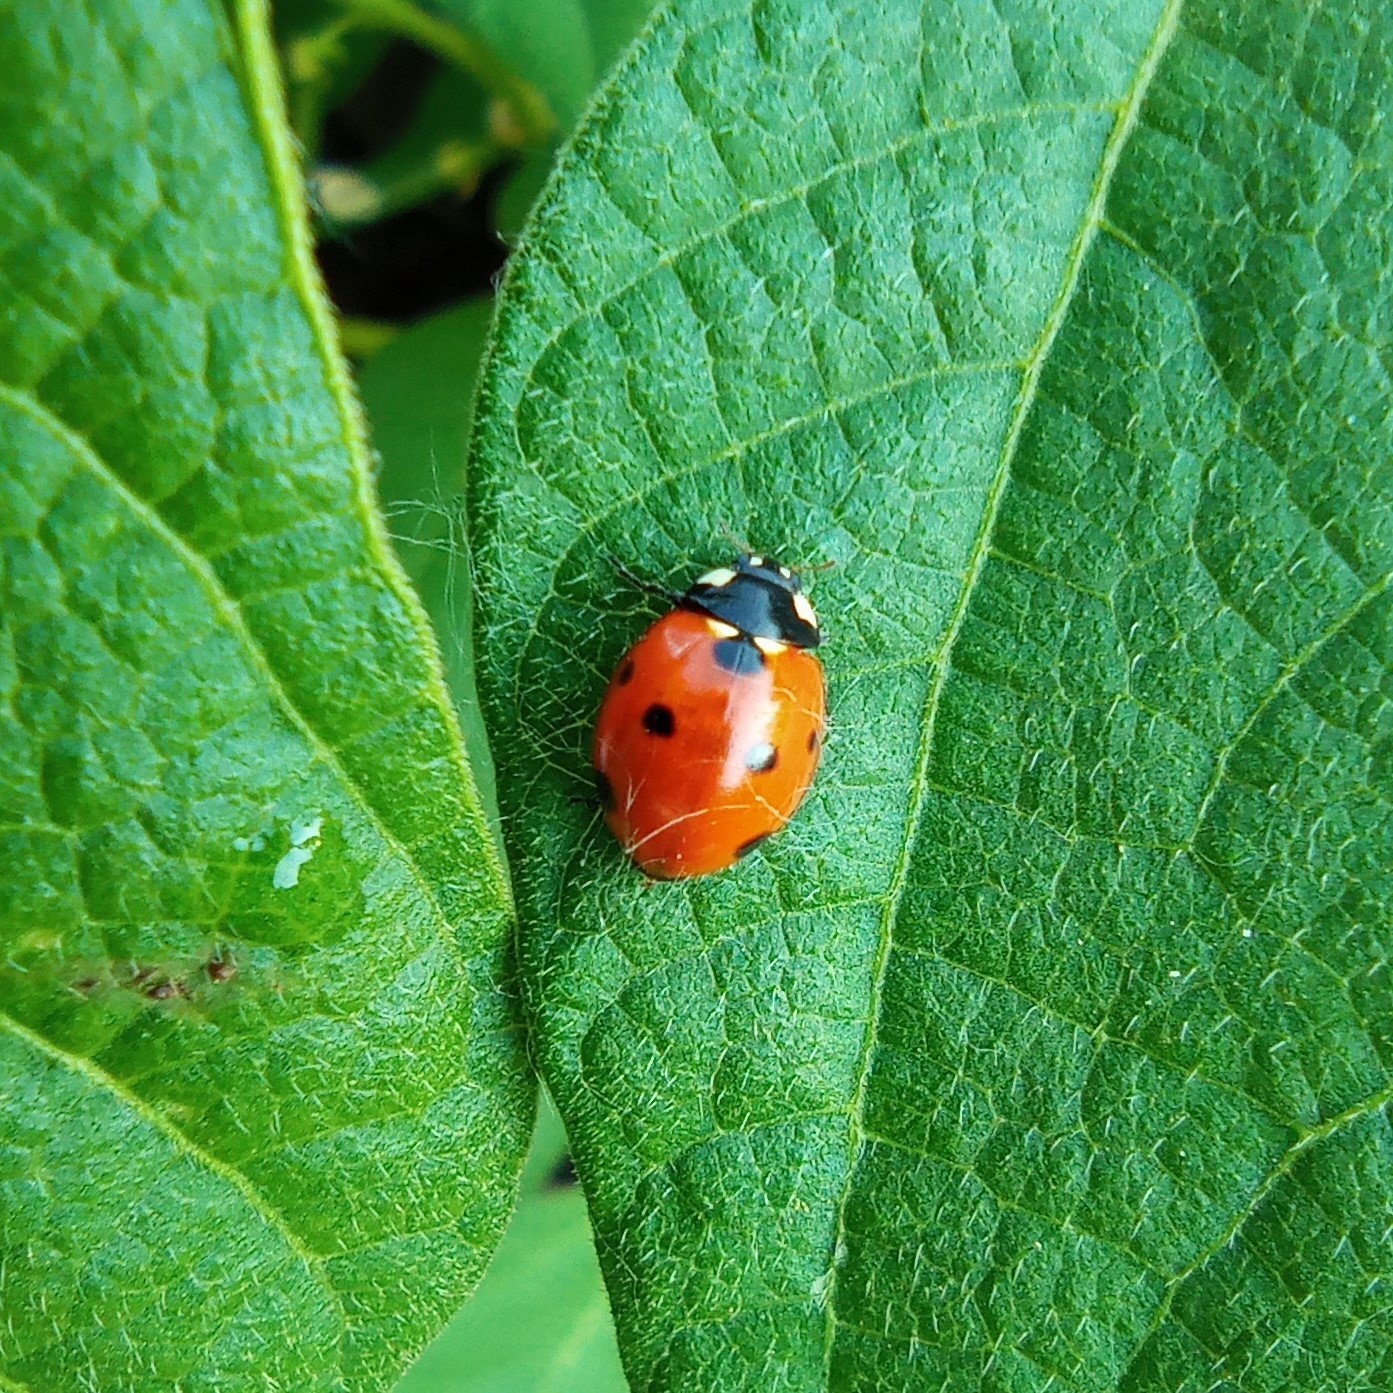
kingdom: Animalia
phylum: Arthropoda
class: Insecta
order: Coleoptera
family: Coccinellidae
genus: Coccinella
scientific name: Coccinella septempunctata
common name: Sevenspotted lady beetle
